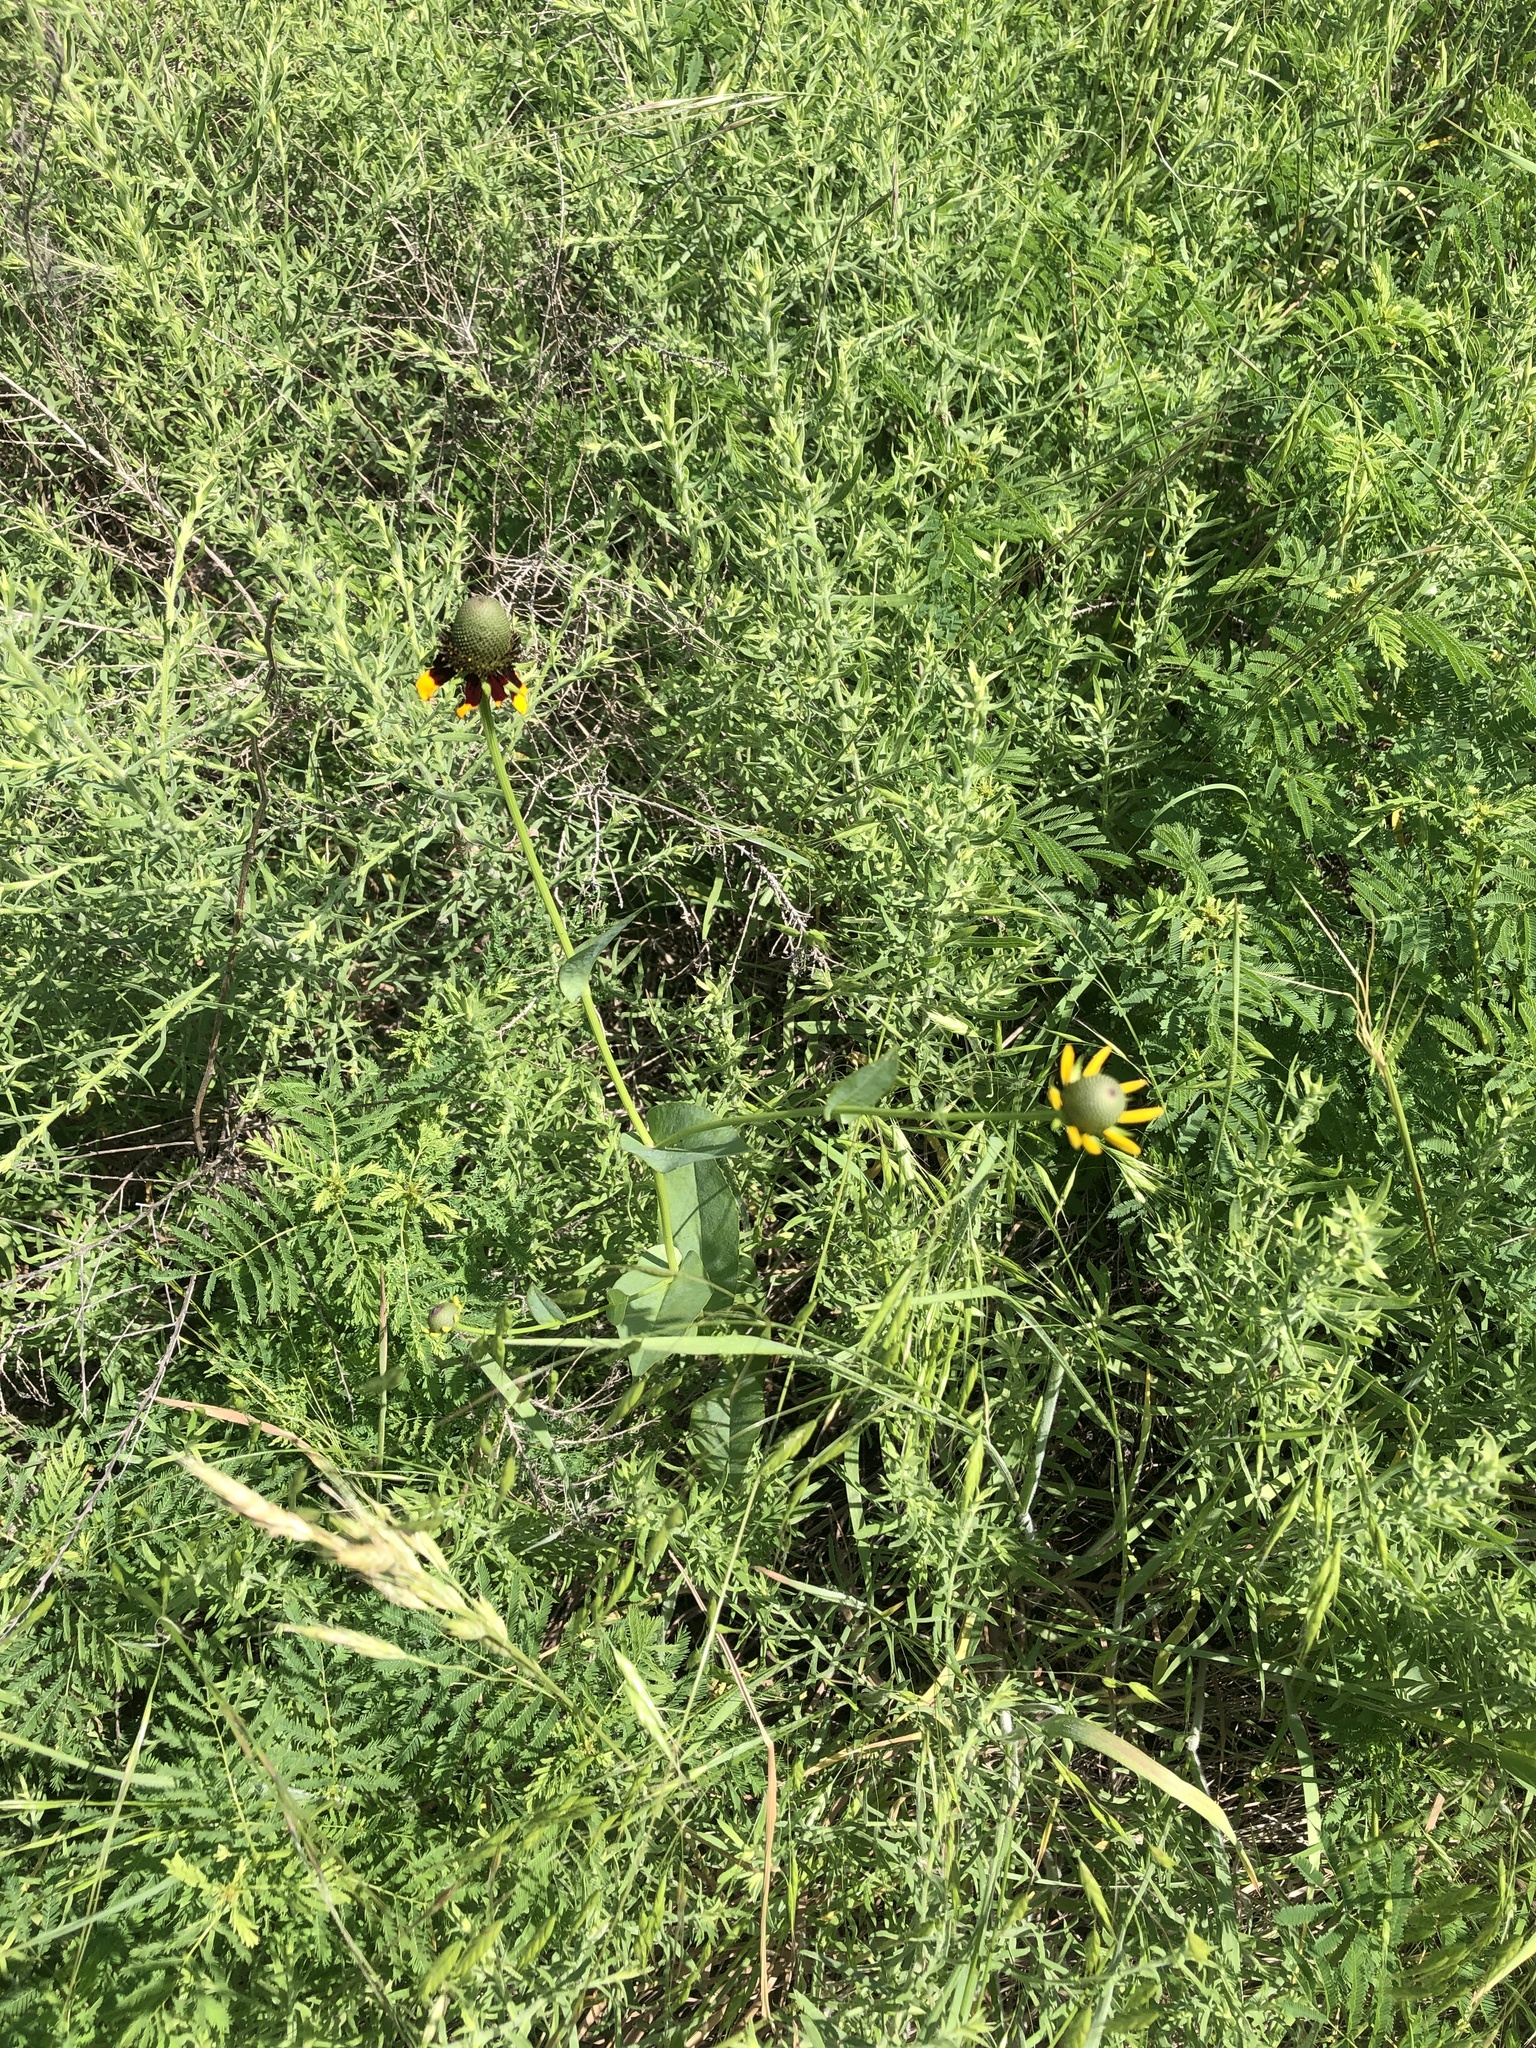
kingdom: Plantae
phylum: Tracheophyta
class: Magnoliopsida
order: Asterales
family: Asteraceae
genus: Rudbeckia
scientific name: Rudbeckia amplexicaulis
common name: Clasping-leaf coneflower
